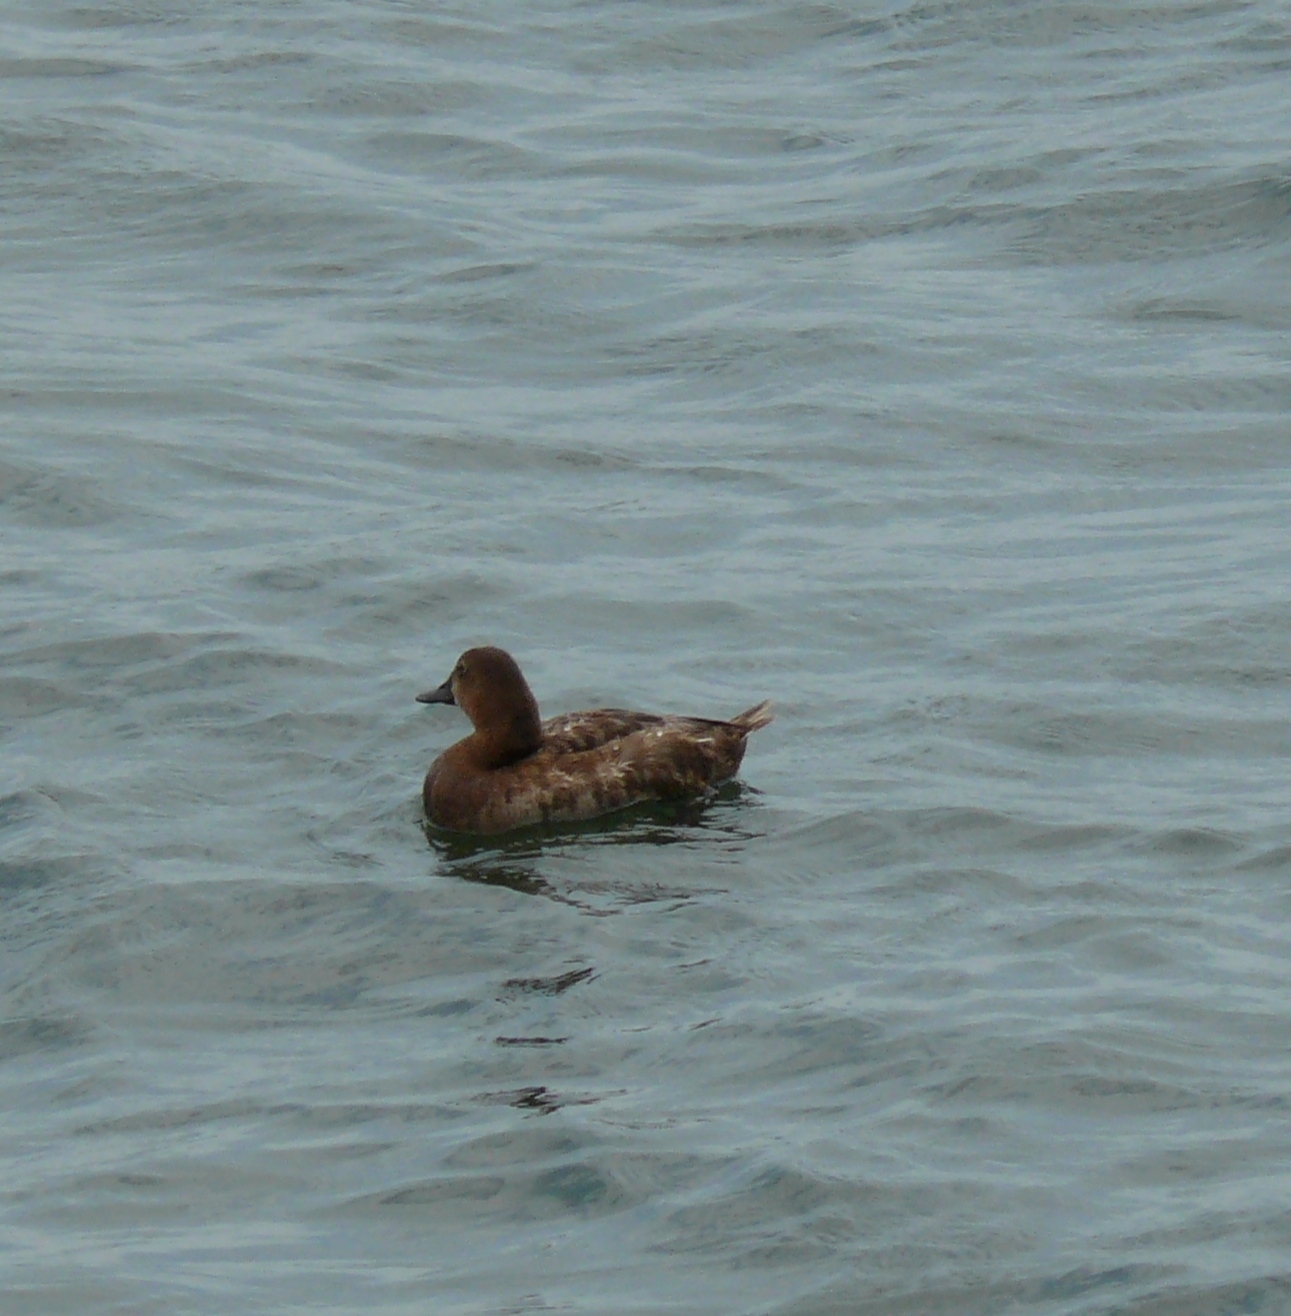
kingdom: Animalia
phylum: Chordata
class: Aves
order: Anseriformes
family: Anatidae
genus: Aythya
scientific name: Aythya ferina
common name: Common pochard
